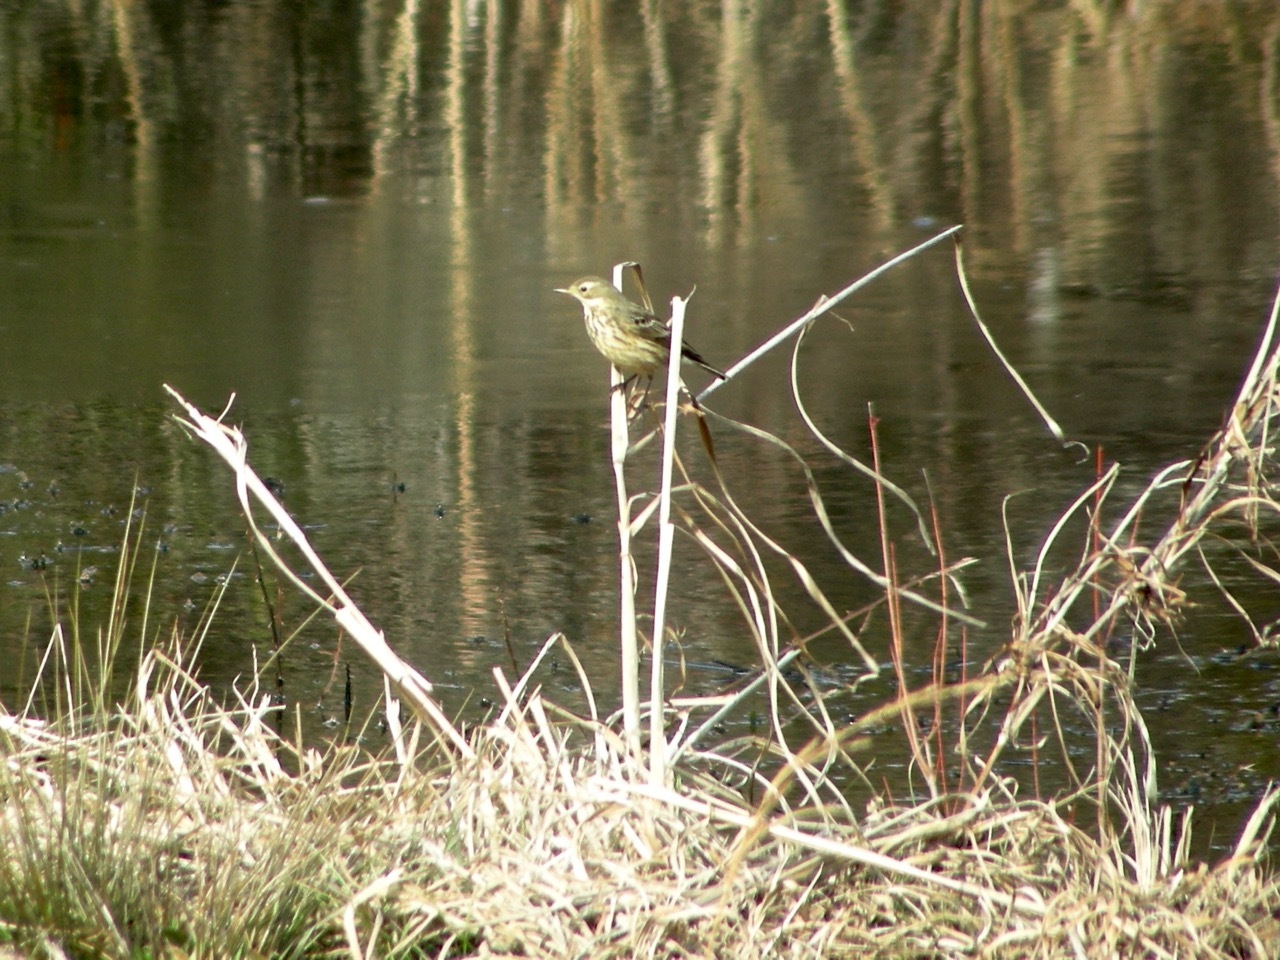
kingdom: Animalia
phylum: Chordata
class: Aves
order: Passeriformes
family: Motacillidae
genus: Anthus
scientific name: Anthus rubescens
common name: Buff-bellied pipit
